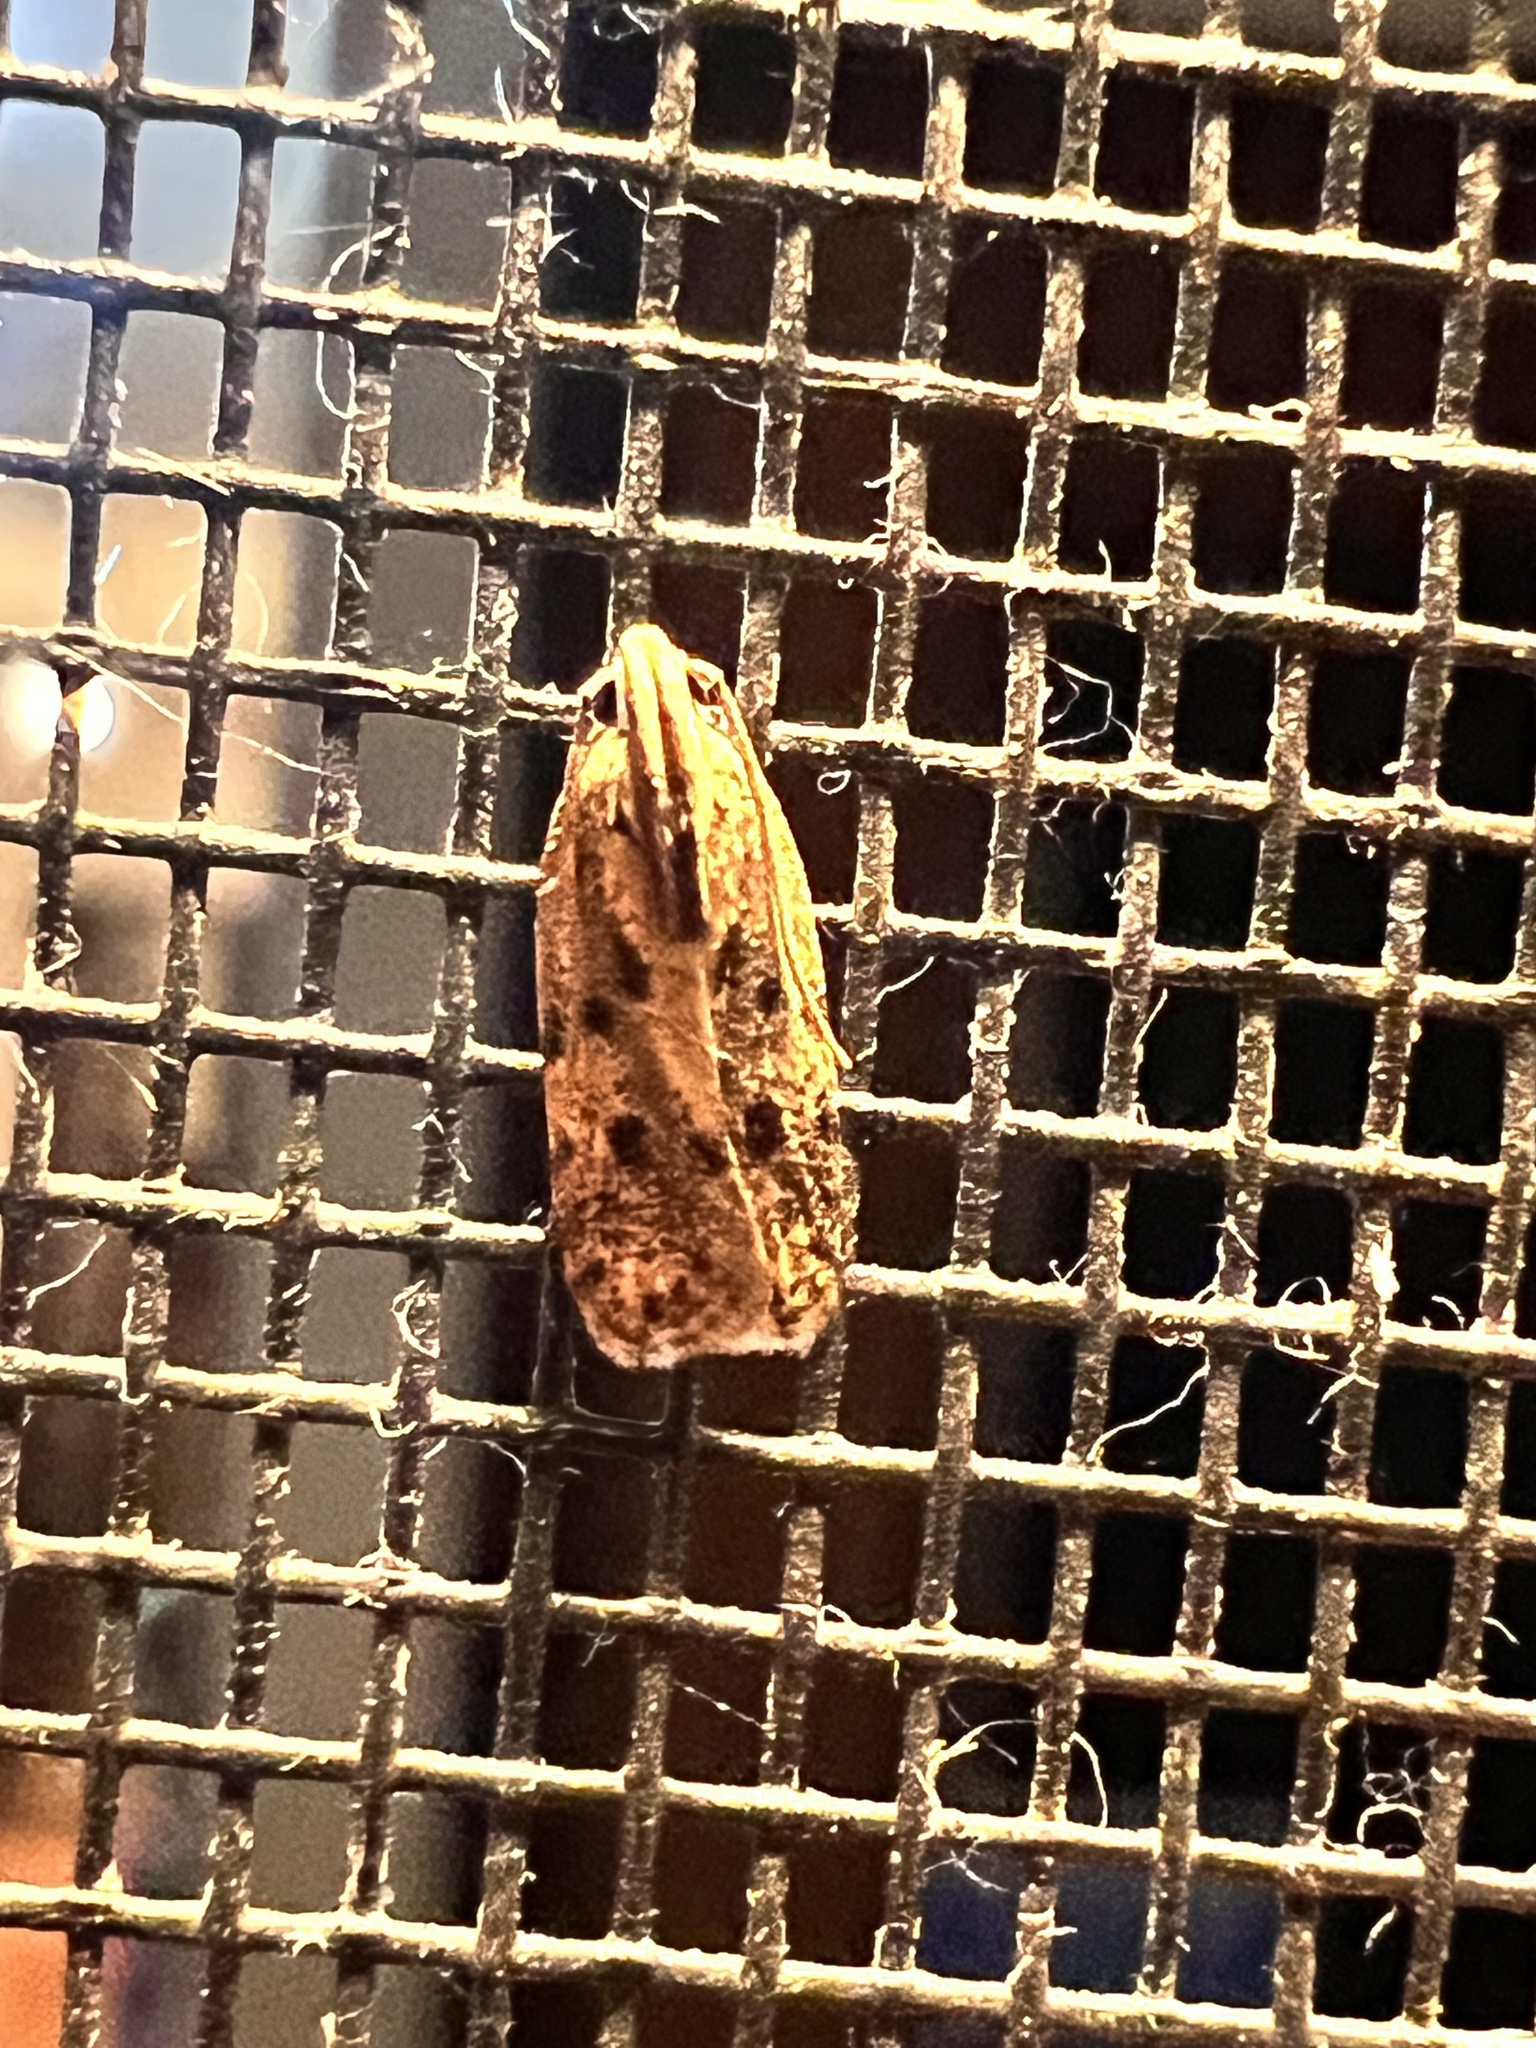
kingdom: Animalia
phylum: Arthropoda
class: Insecta
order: Lepidoptera
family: Autostichidae
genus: Stoeberhinus
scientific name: Stoeberhinus testaceus
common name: Moth
